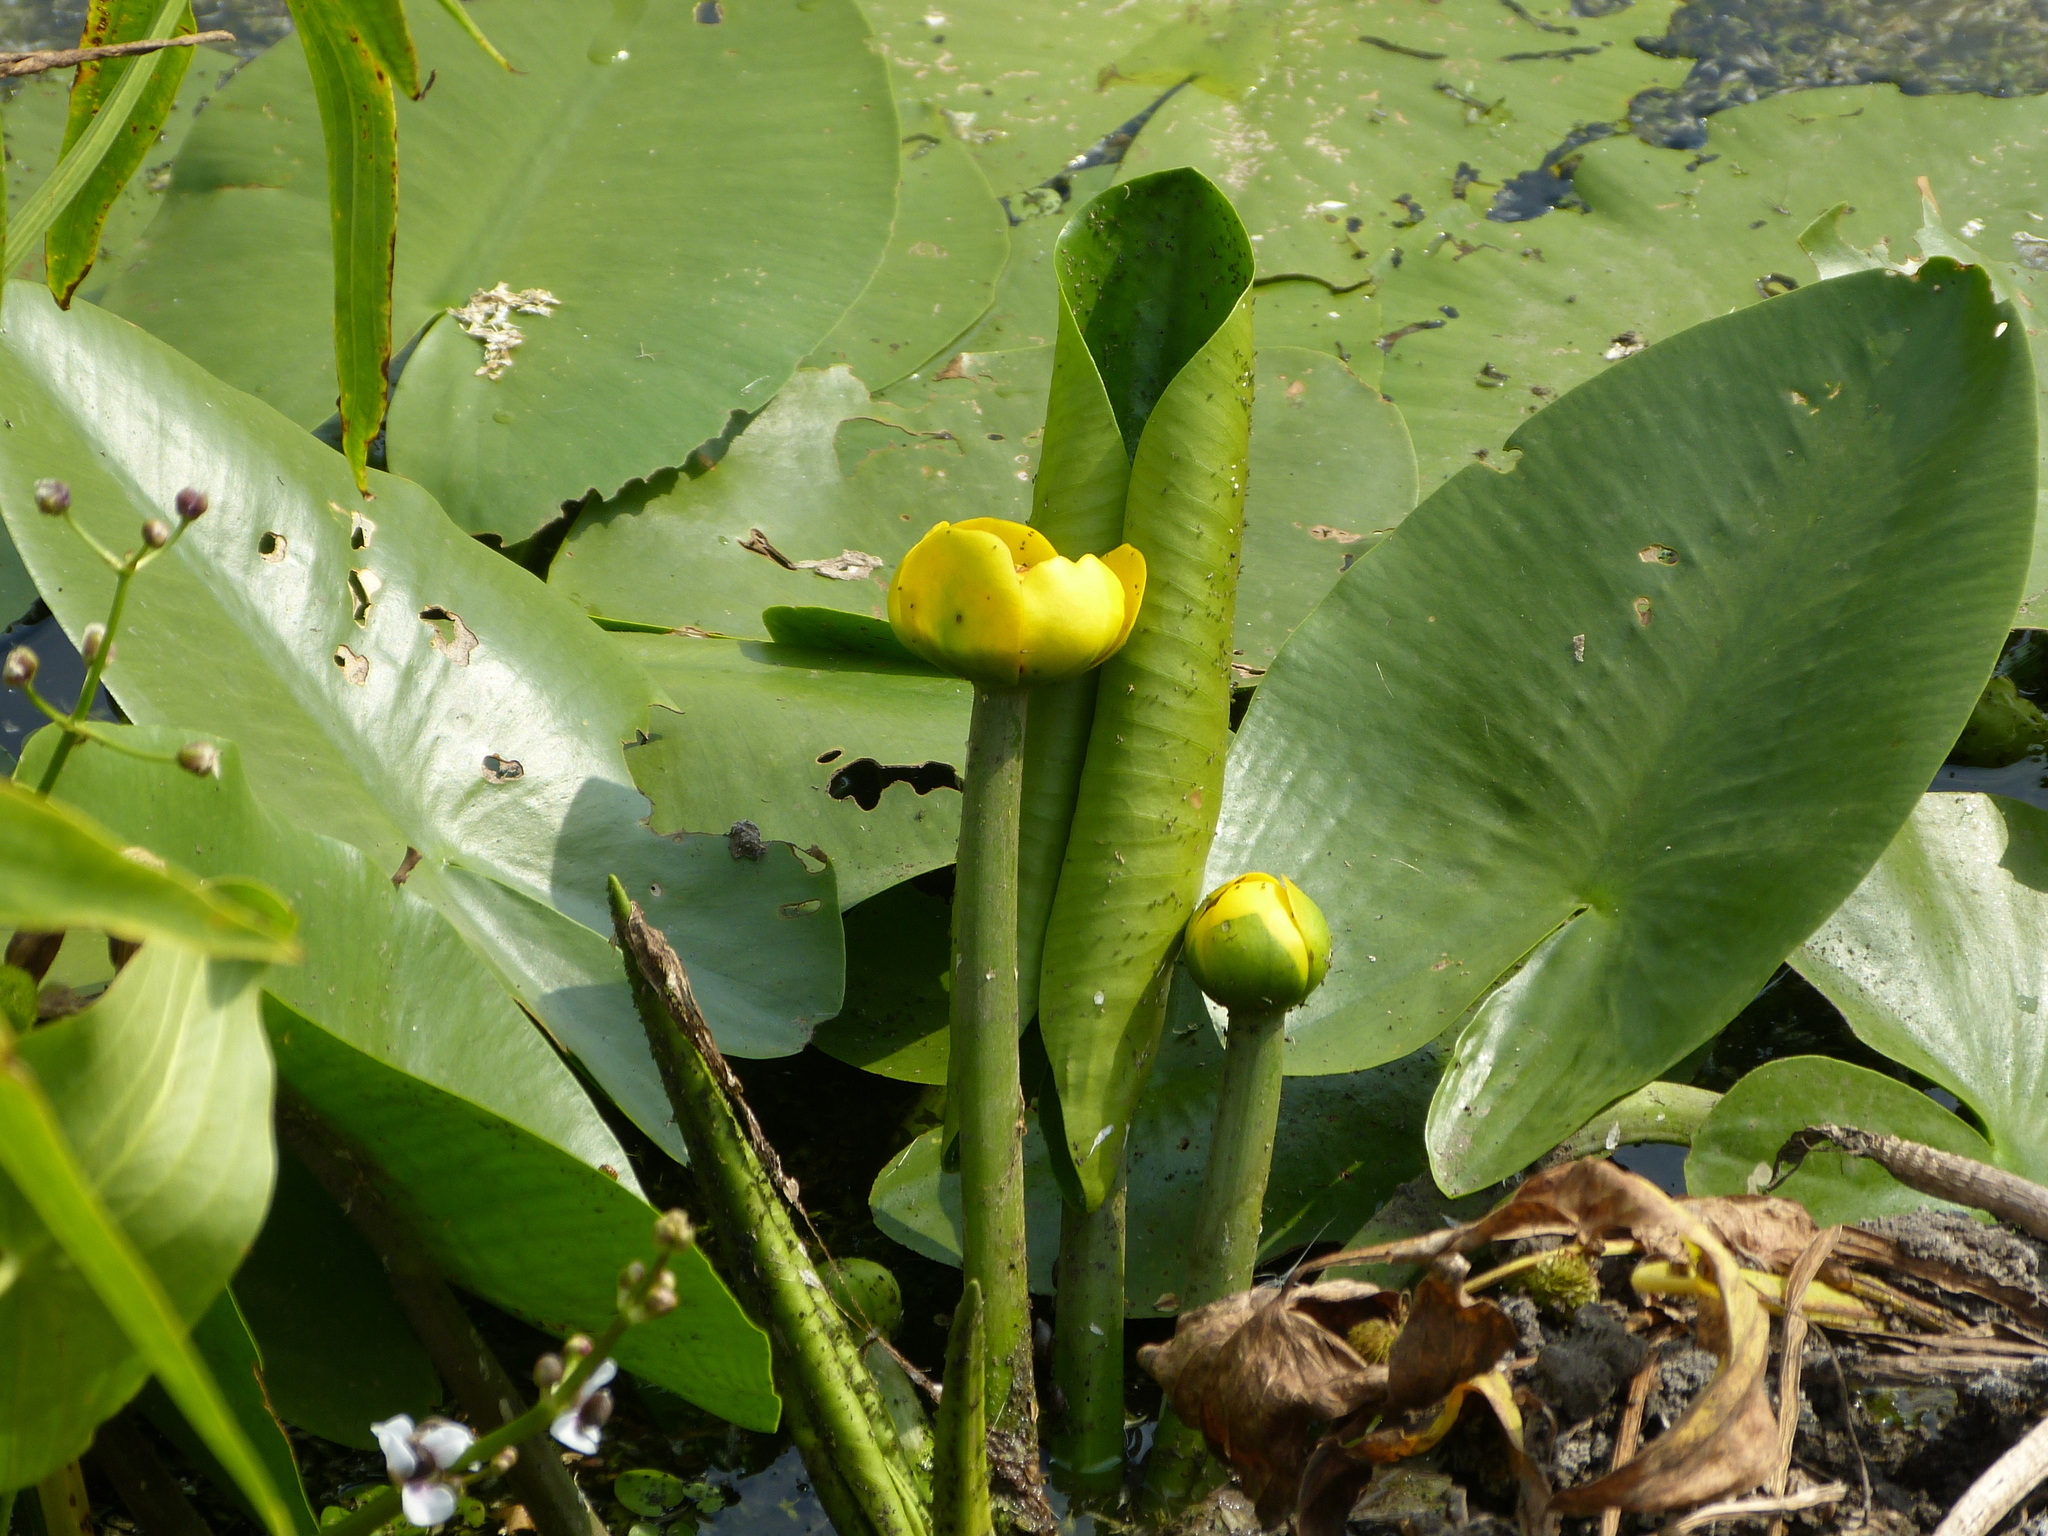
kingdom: Plantae
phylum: Tracheophyta
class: Magnoliopsida
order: Nymphaeales
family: Nymphaeaceae
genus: Nuphar
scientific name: Nuphar lutea
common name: Yellow water-lily
